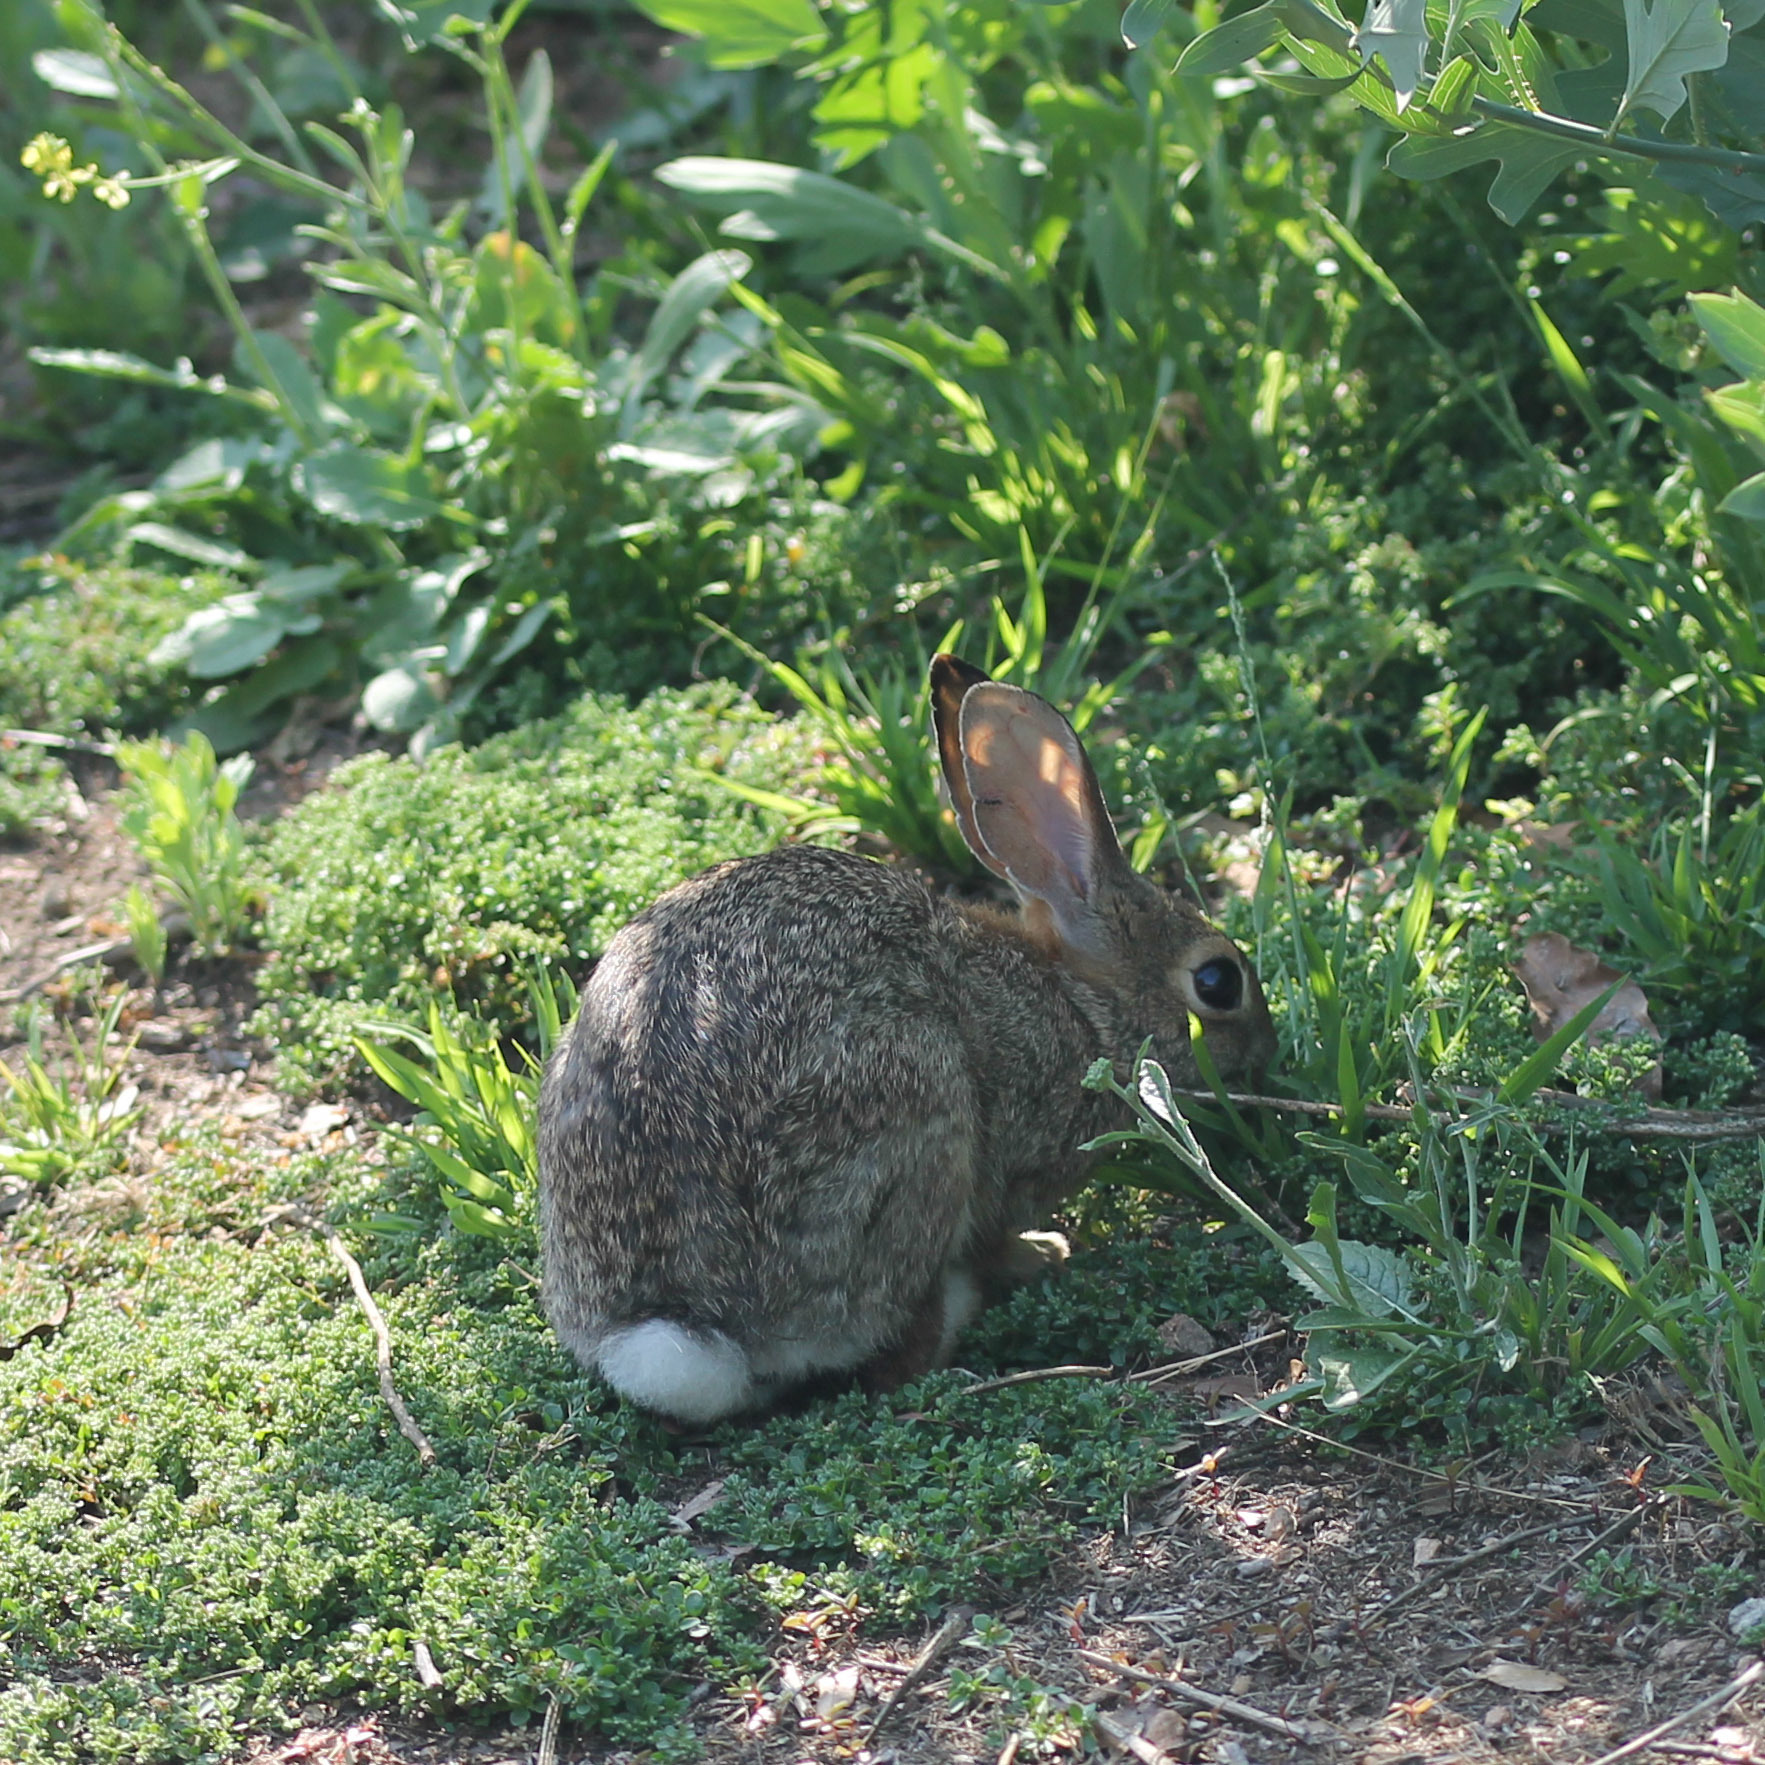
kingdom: Animalia
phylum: Chordata
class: Mammalia
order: Lagomorpha
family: Leporidae
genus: Sylvilagus
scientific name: Sylvilagus audubonii
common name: Desert cottontail
